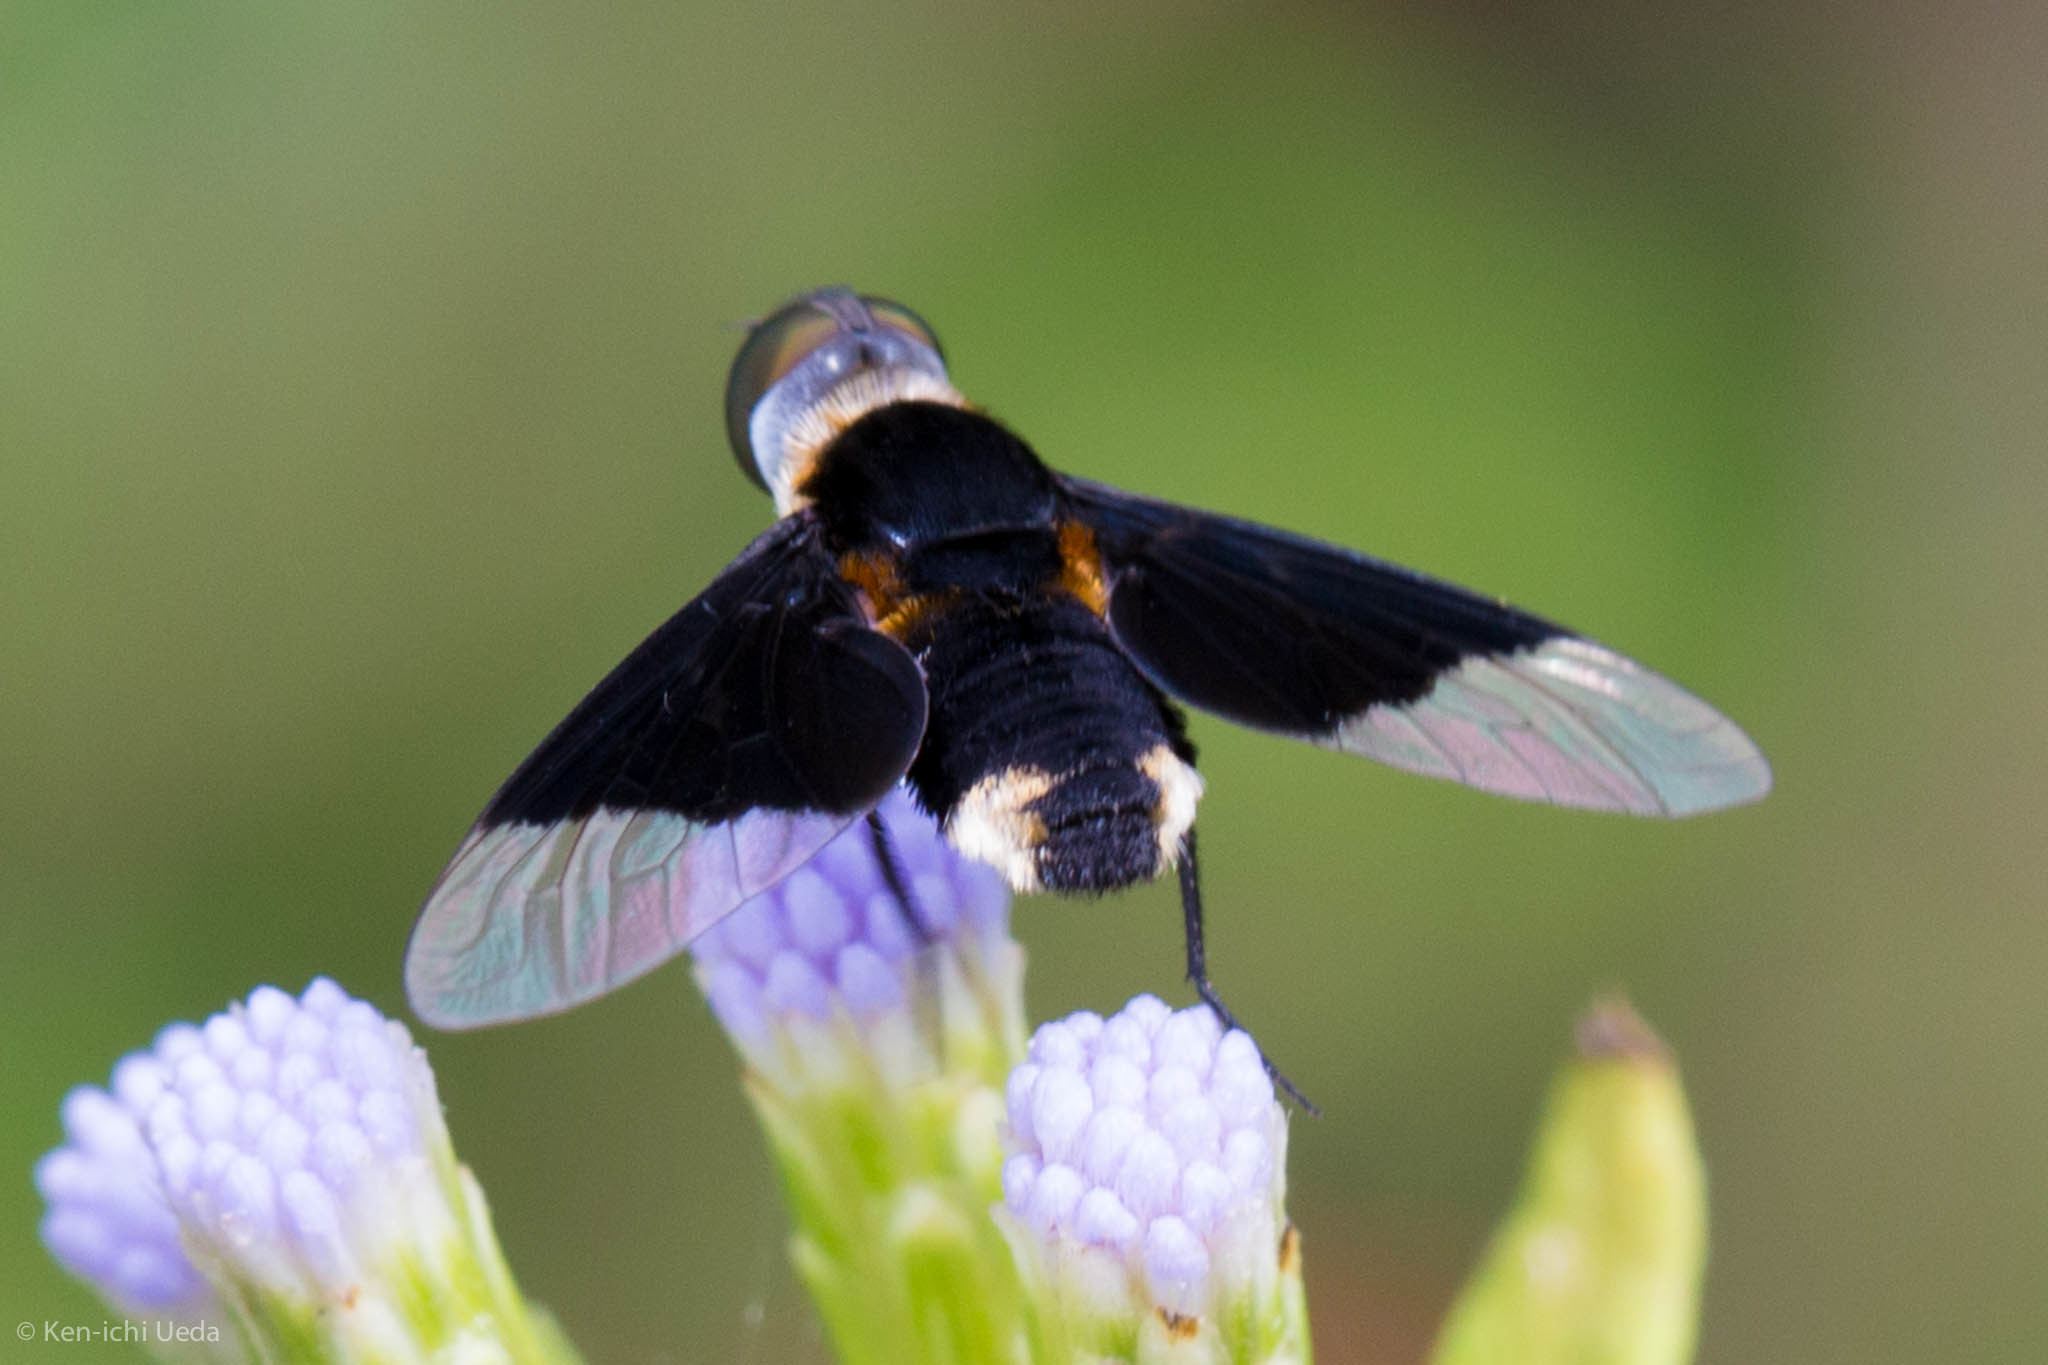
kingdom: Animalia
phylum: Arthropoda
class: Insecta
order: Diptera
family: Bombyliidae
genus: Ins
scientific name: Ins celeris
